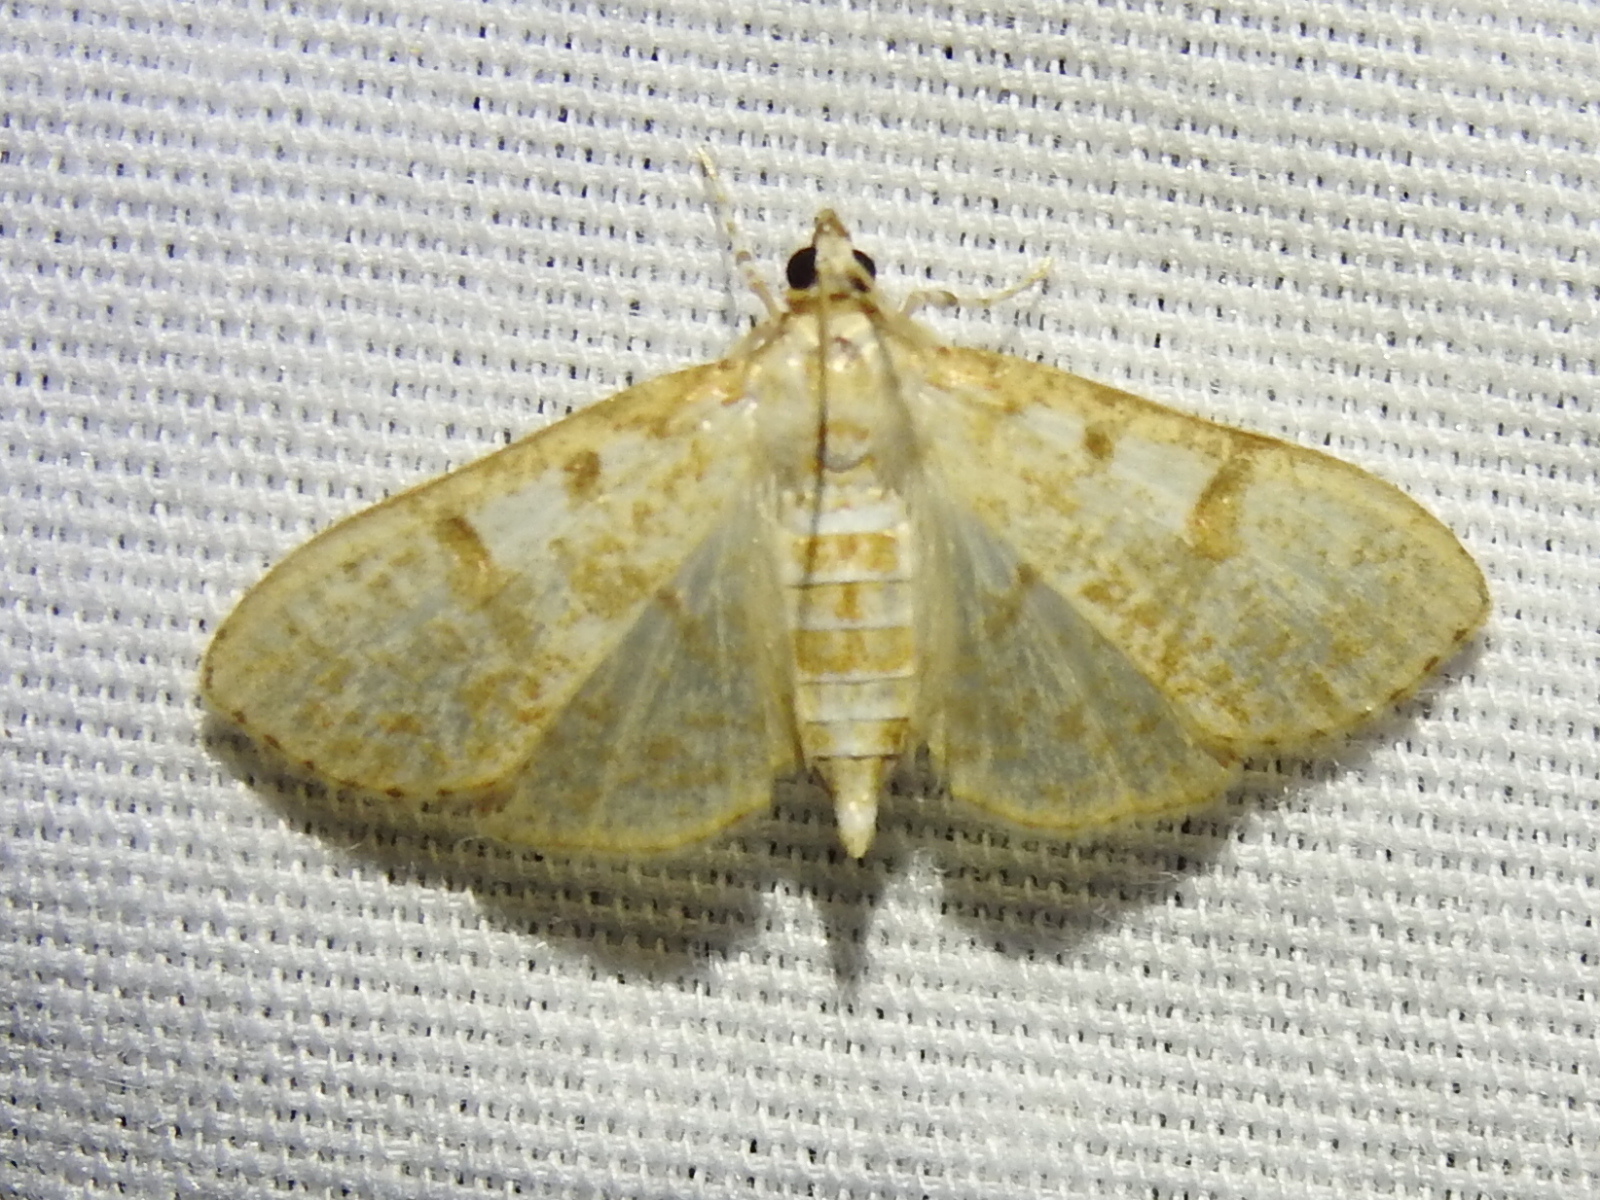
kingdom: Animalia
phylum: Arthropoda
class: Insecta
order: Lepidoptera
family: Crambidae
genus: Palpita
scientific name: Palpita freemanalis
